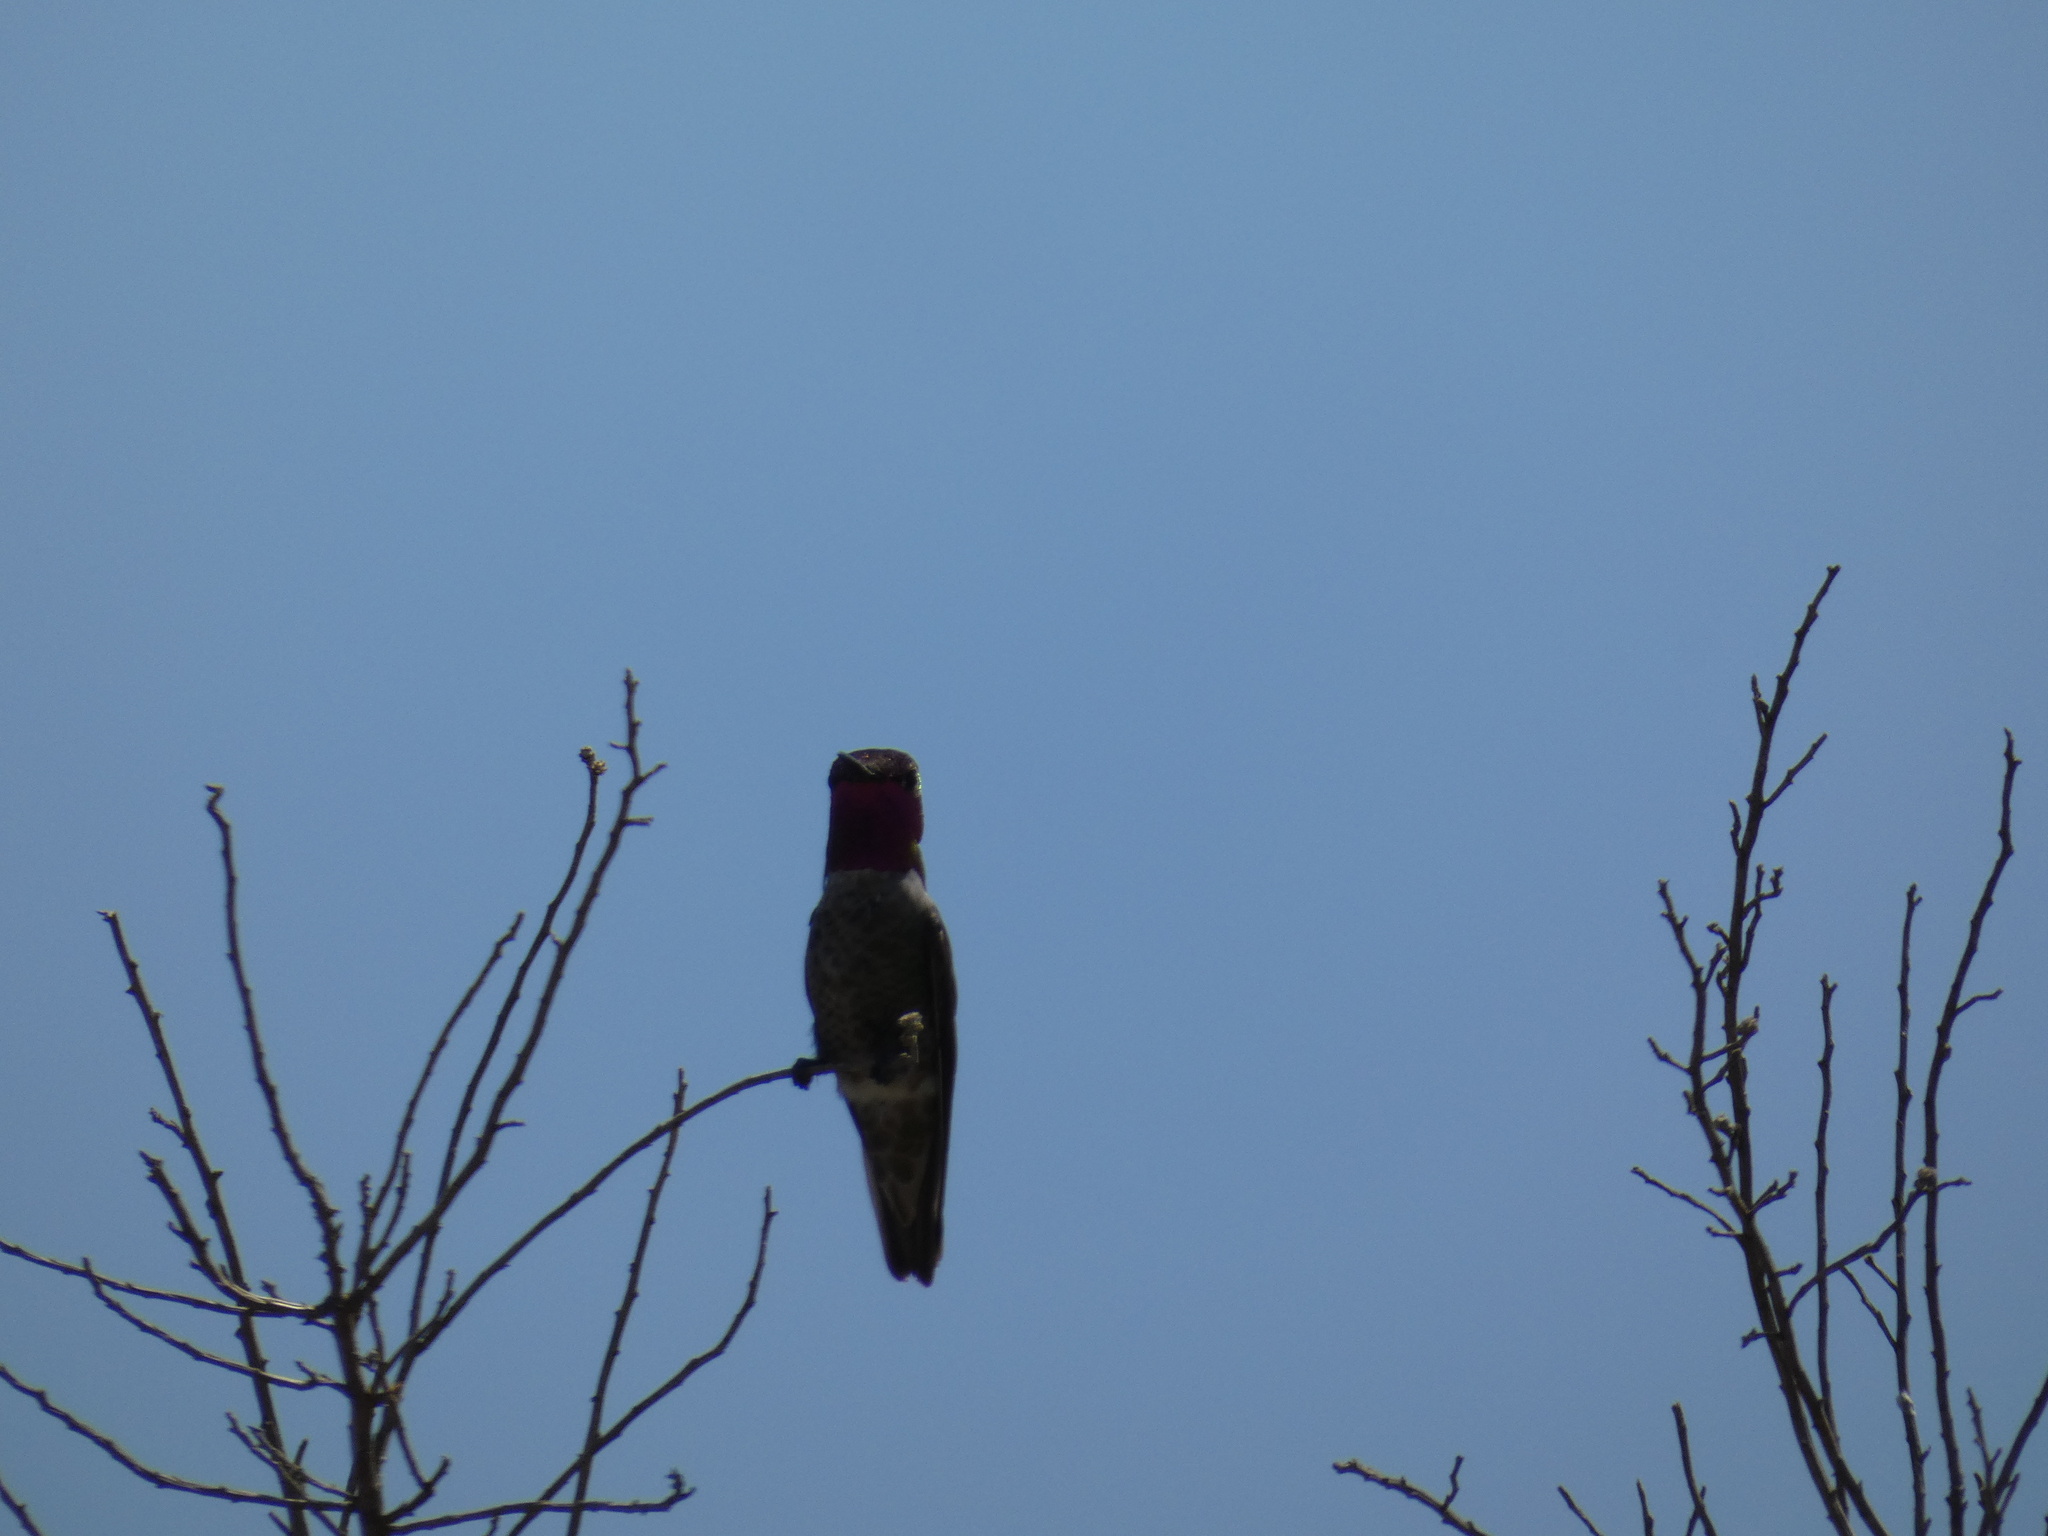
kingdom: Animalia
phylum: Chordata
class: Aves
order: Apodiformes
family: Trochilidae
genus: Calypte
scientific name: Calypte anna
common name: Anna's hummingbird
